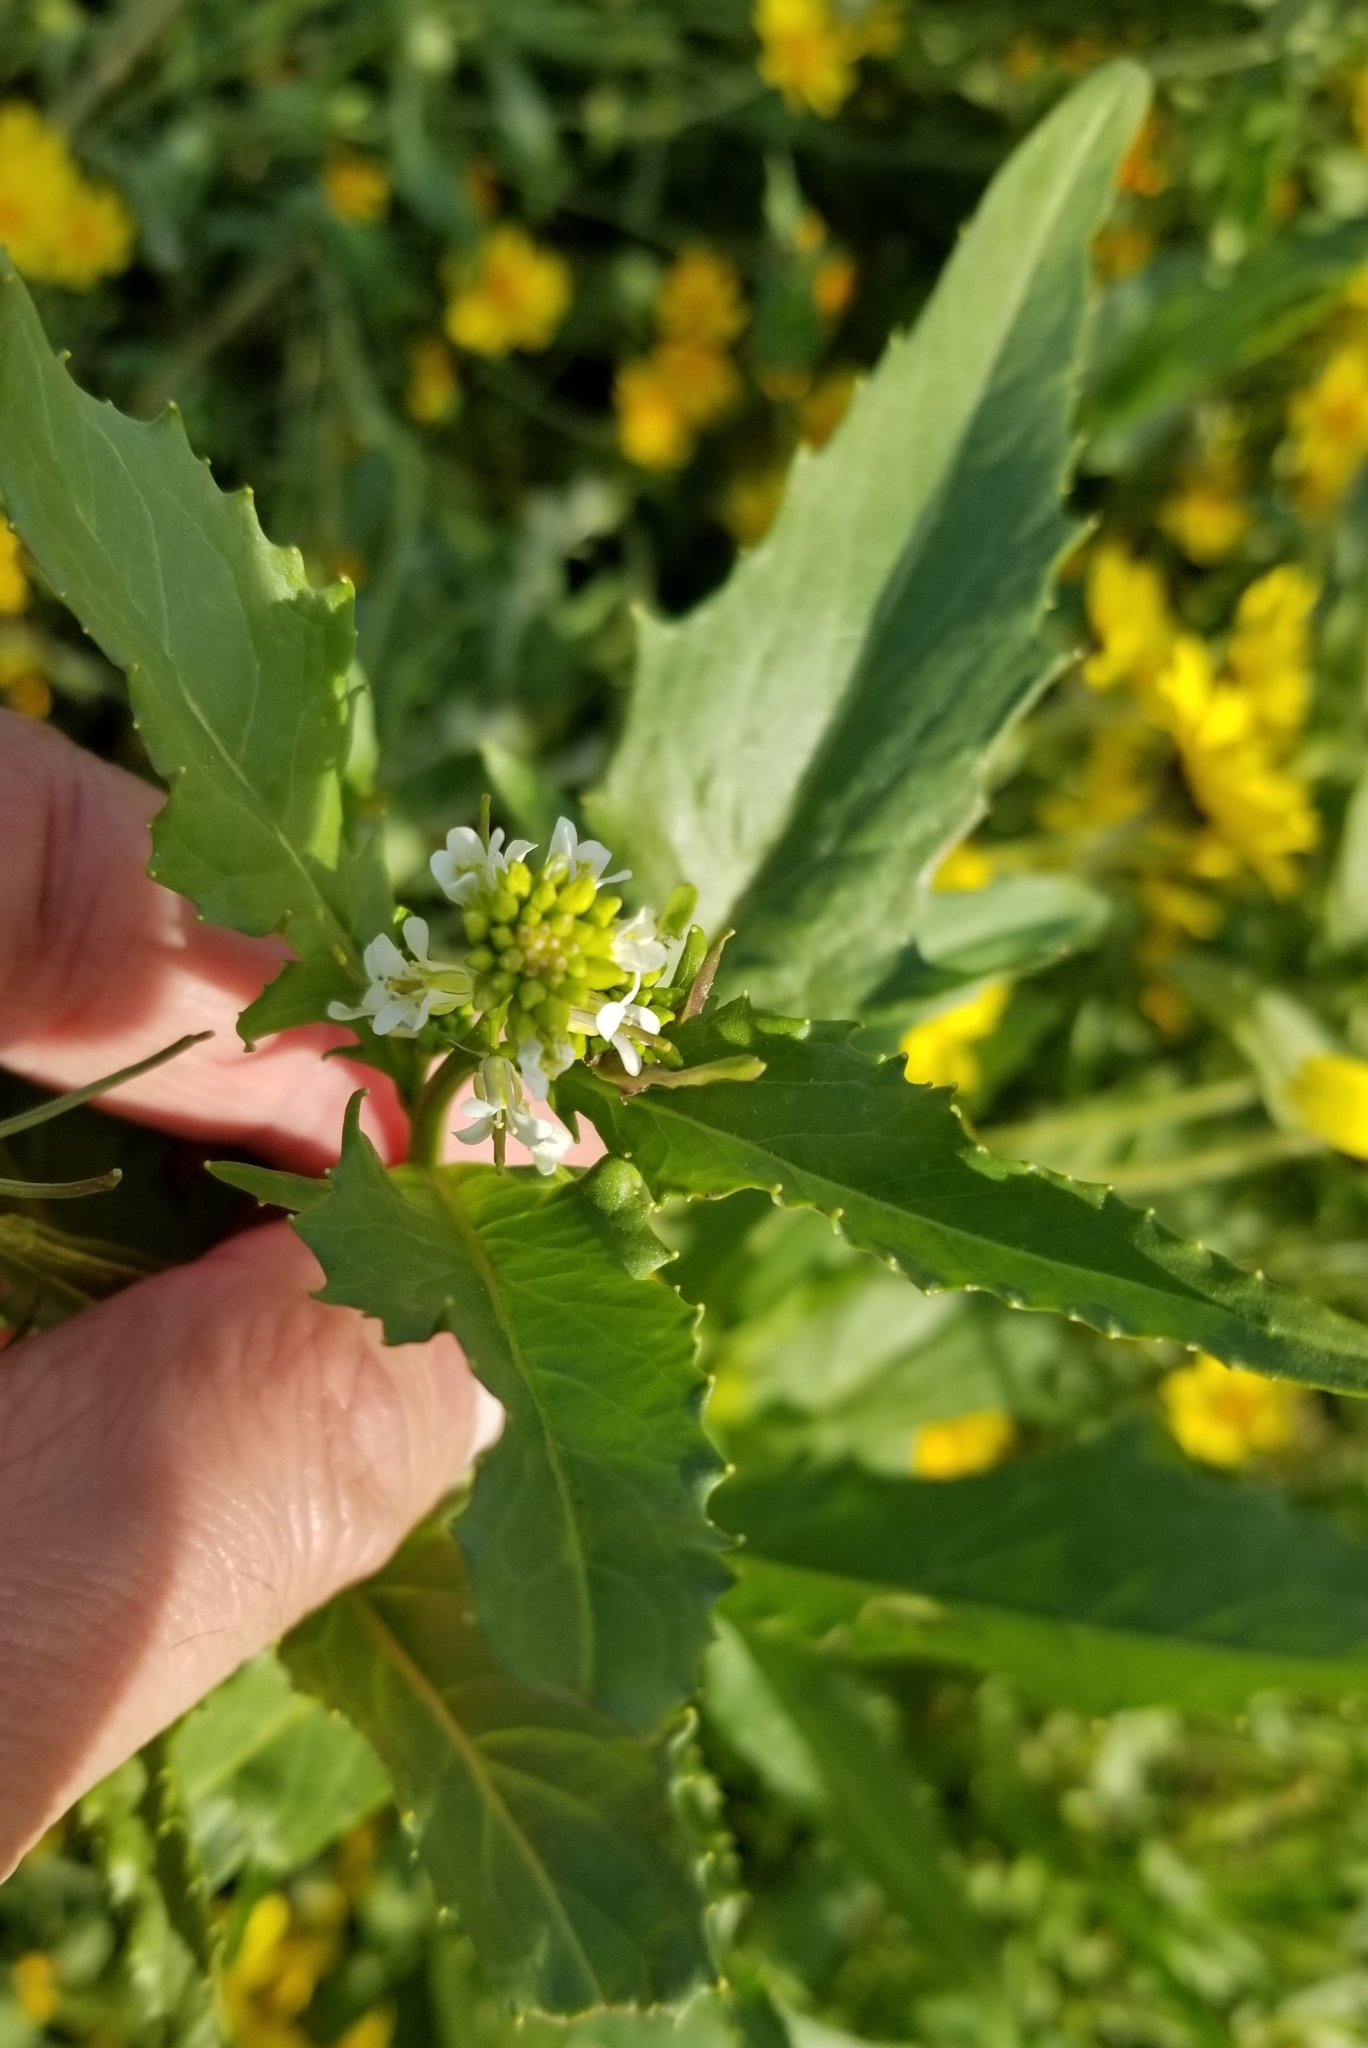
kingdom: Plantae
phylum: Tracheophyta
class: Magnoliopsida
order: Brassicales
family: Brassicaceae
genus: Streptanthus
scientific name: Streptanthus lasiophyllus
